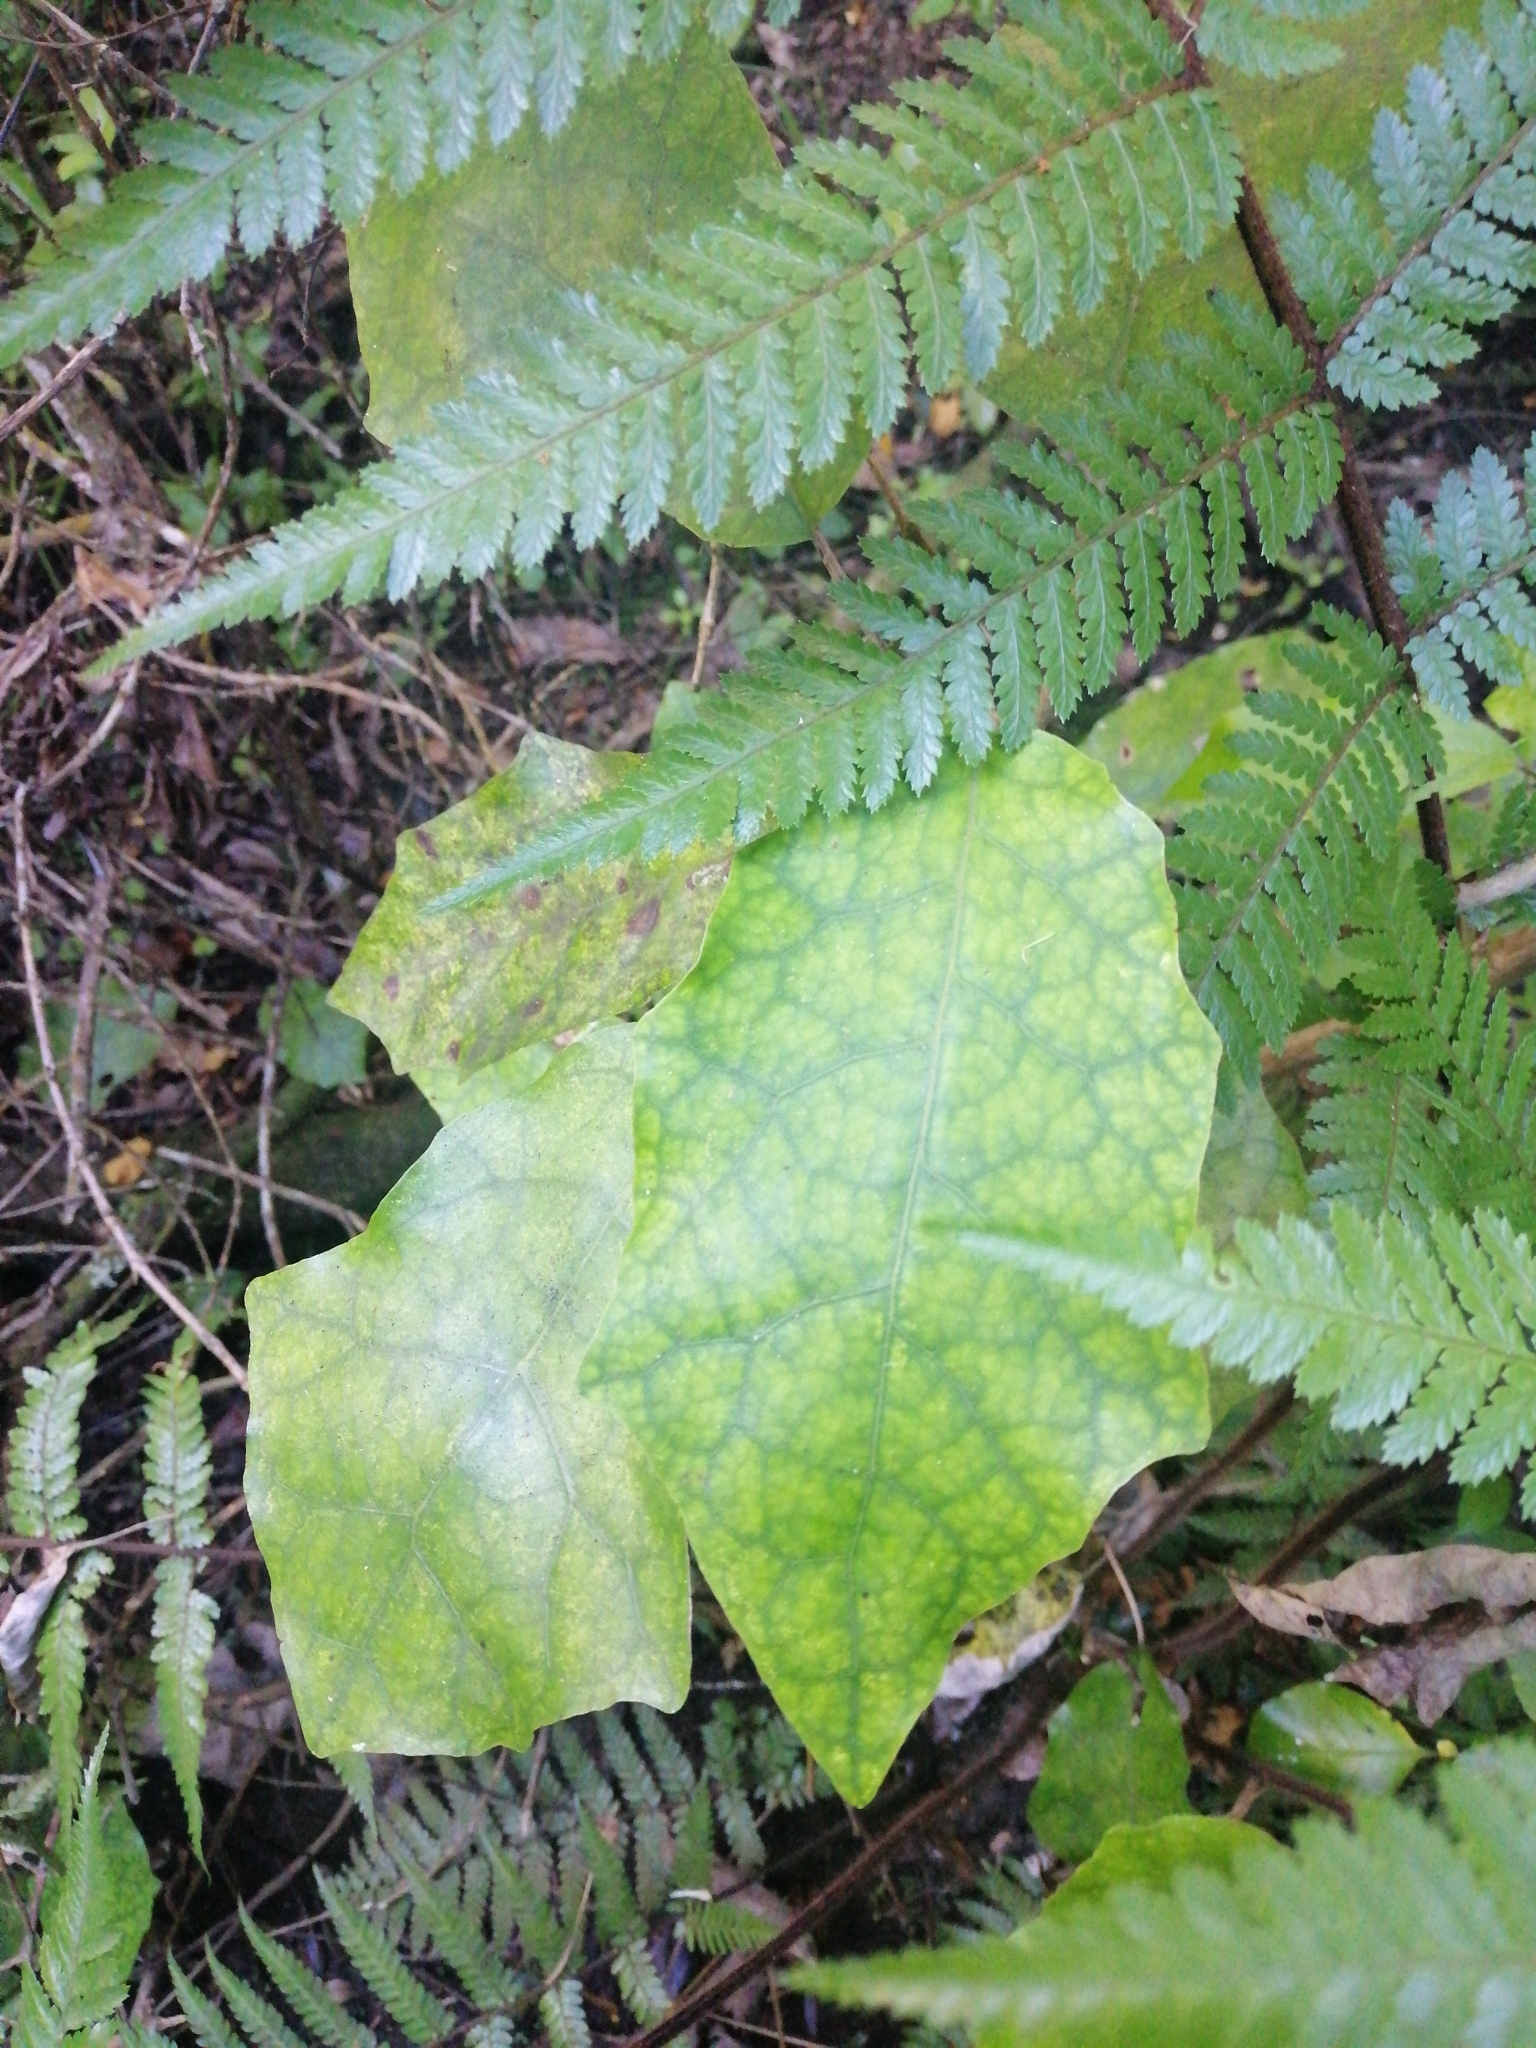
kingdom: Plantae
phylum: Tracheophyta
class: Magnoliopsida
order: Asterales
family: Asteraceae
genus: Brachyglottis
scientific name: Brachyglottis repanda
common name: Hedge ragwort
